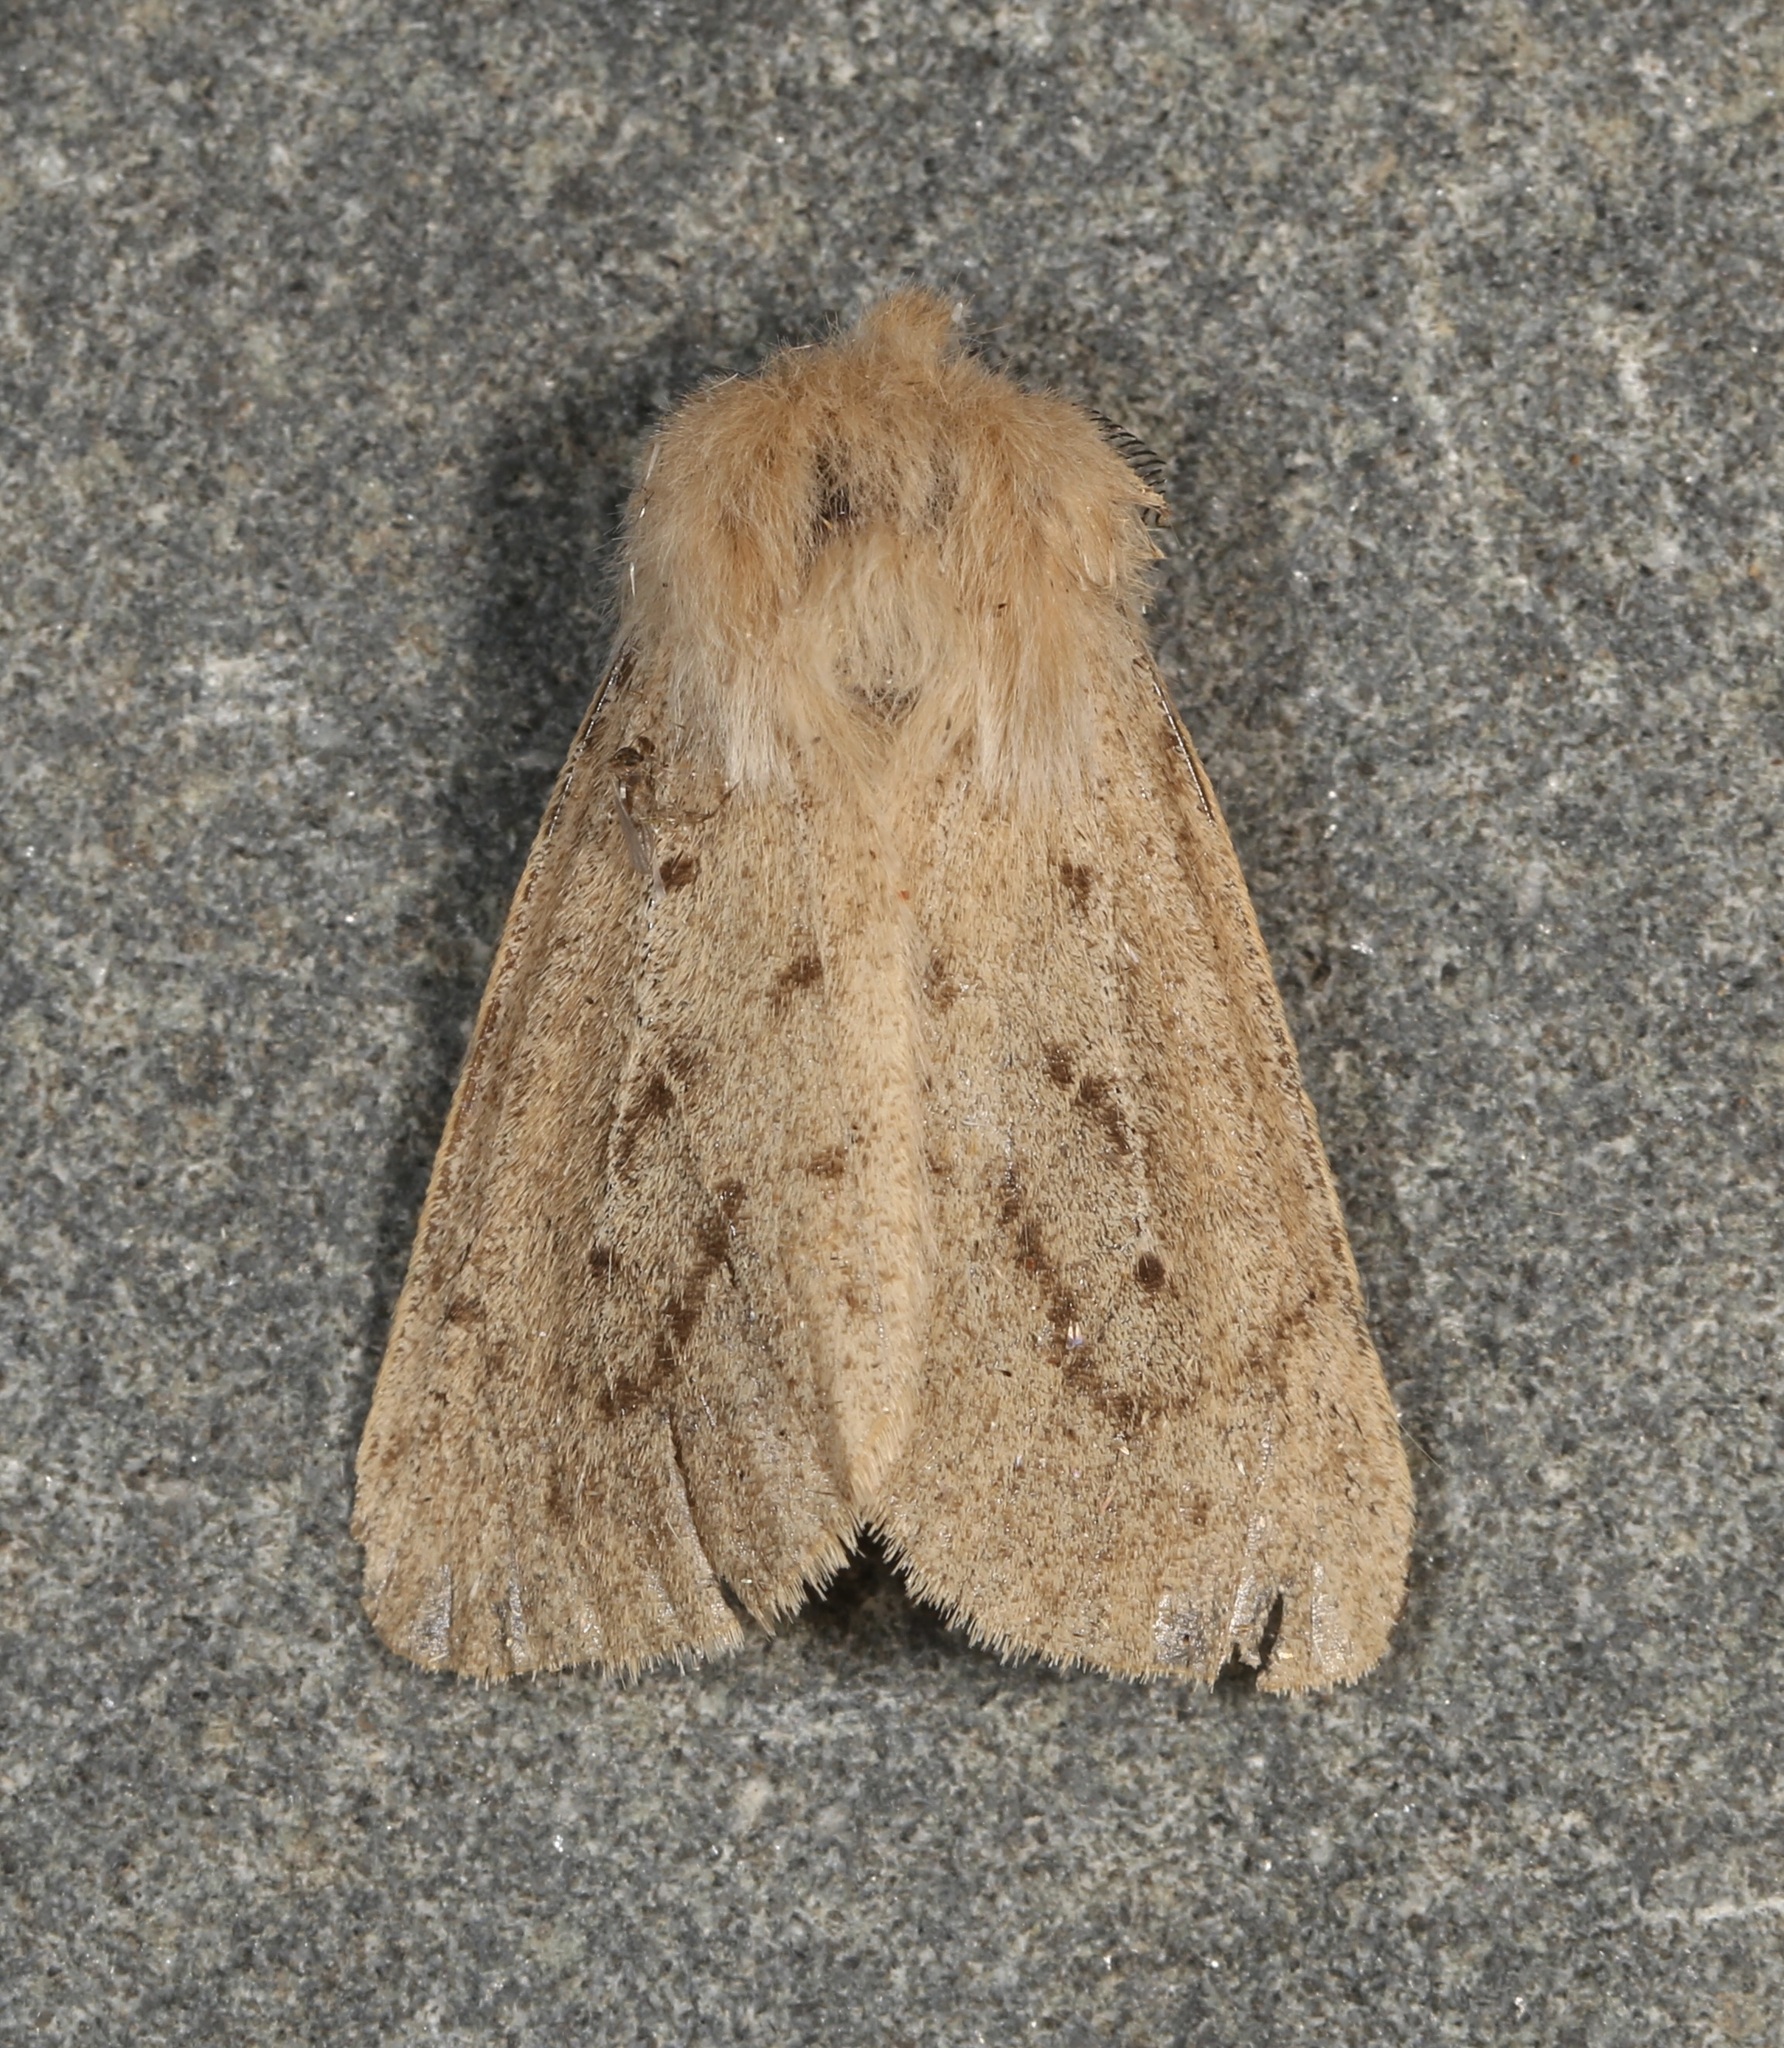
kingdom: Animalia
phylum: Arthropoda
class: Insecta
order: Lepidoptera
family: Erebidae
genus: Spilosoma
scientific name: Spilosoma vagans
